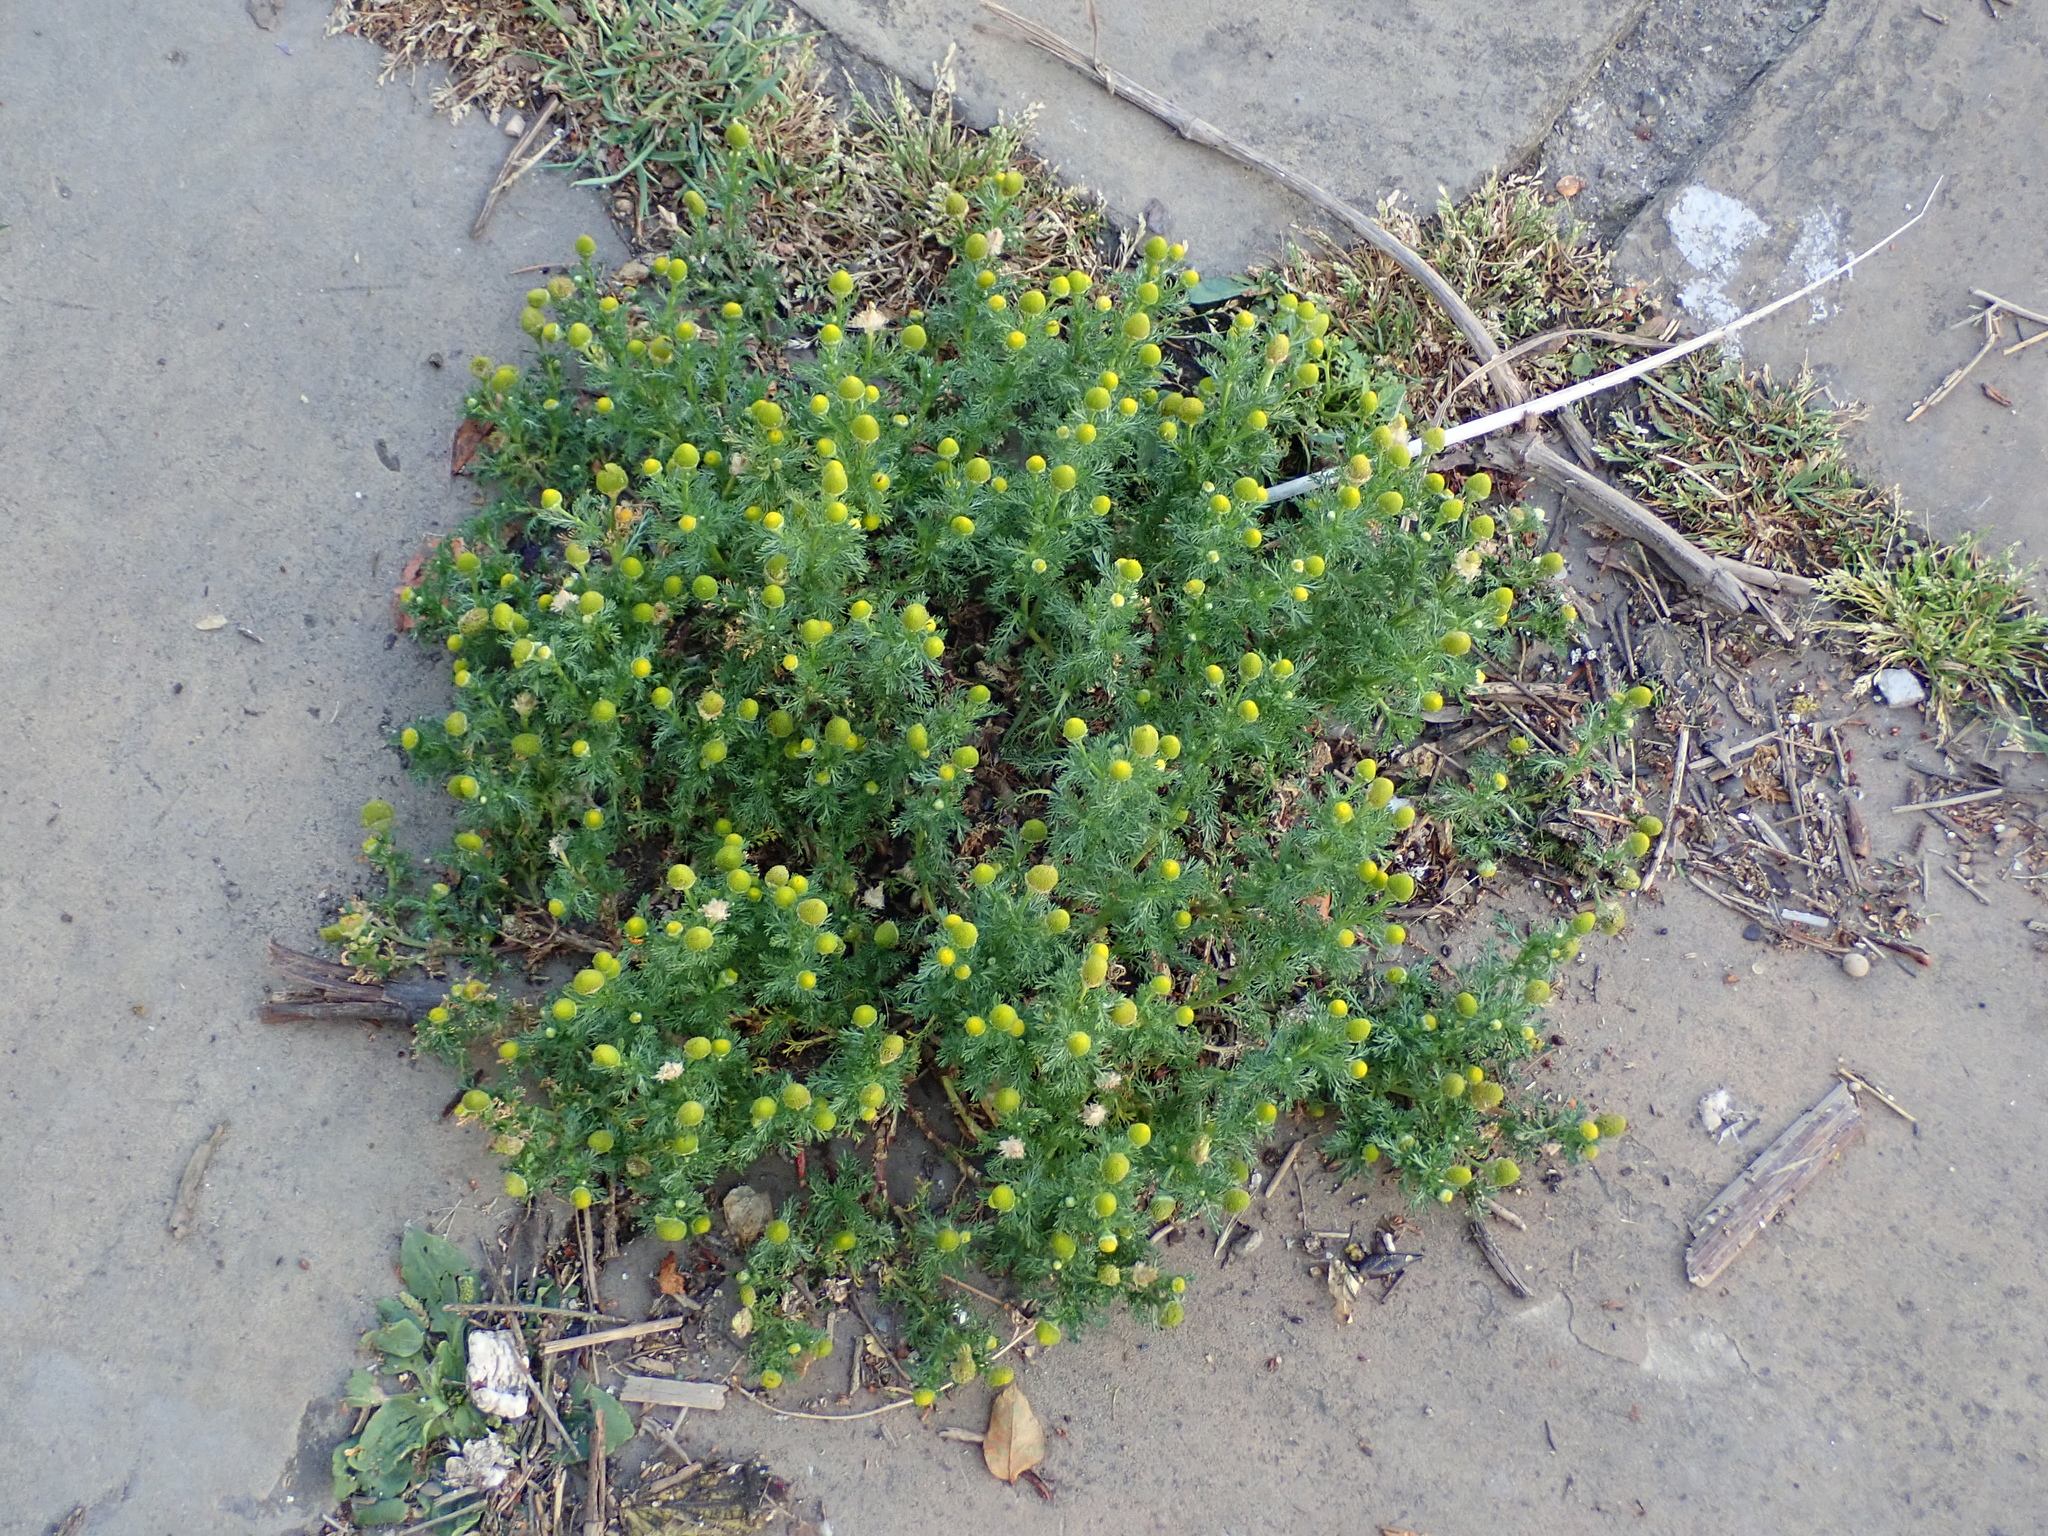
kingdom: Plantae
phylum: Tracheophyta
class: Magnoliopsida
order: Asterales
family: Asteraceae
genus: Matricaria
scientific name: Matricaria discoidea
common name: Disc mayweed
